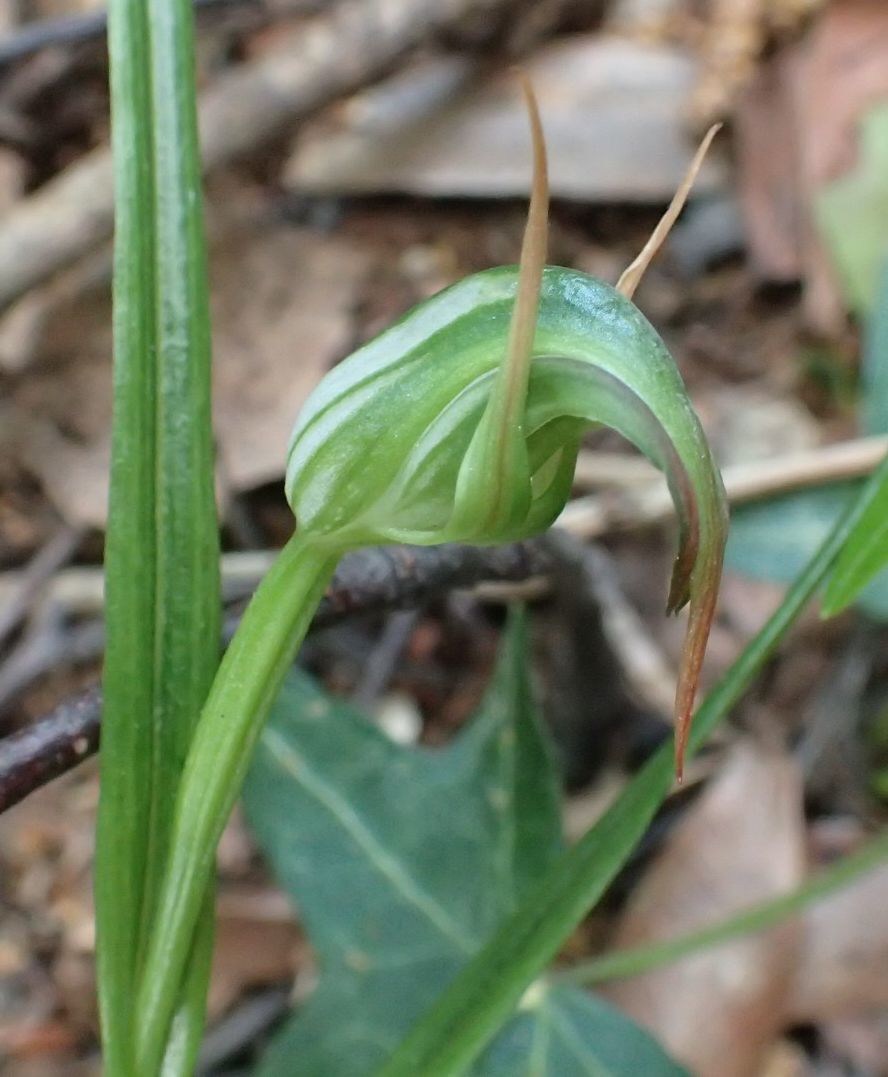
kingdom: Plantae
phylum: Tracheophyta
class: Liliopsida
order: Asparagales
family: Orchidaceae
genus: Pterostylis
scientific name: Pterostylis graminea
